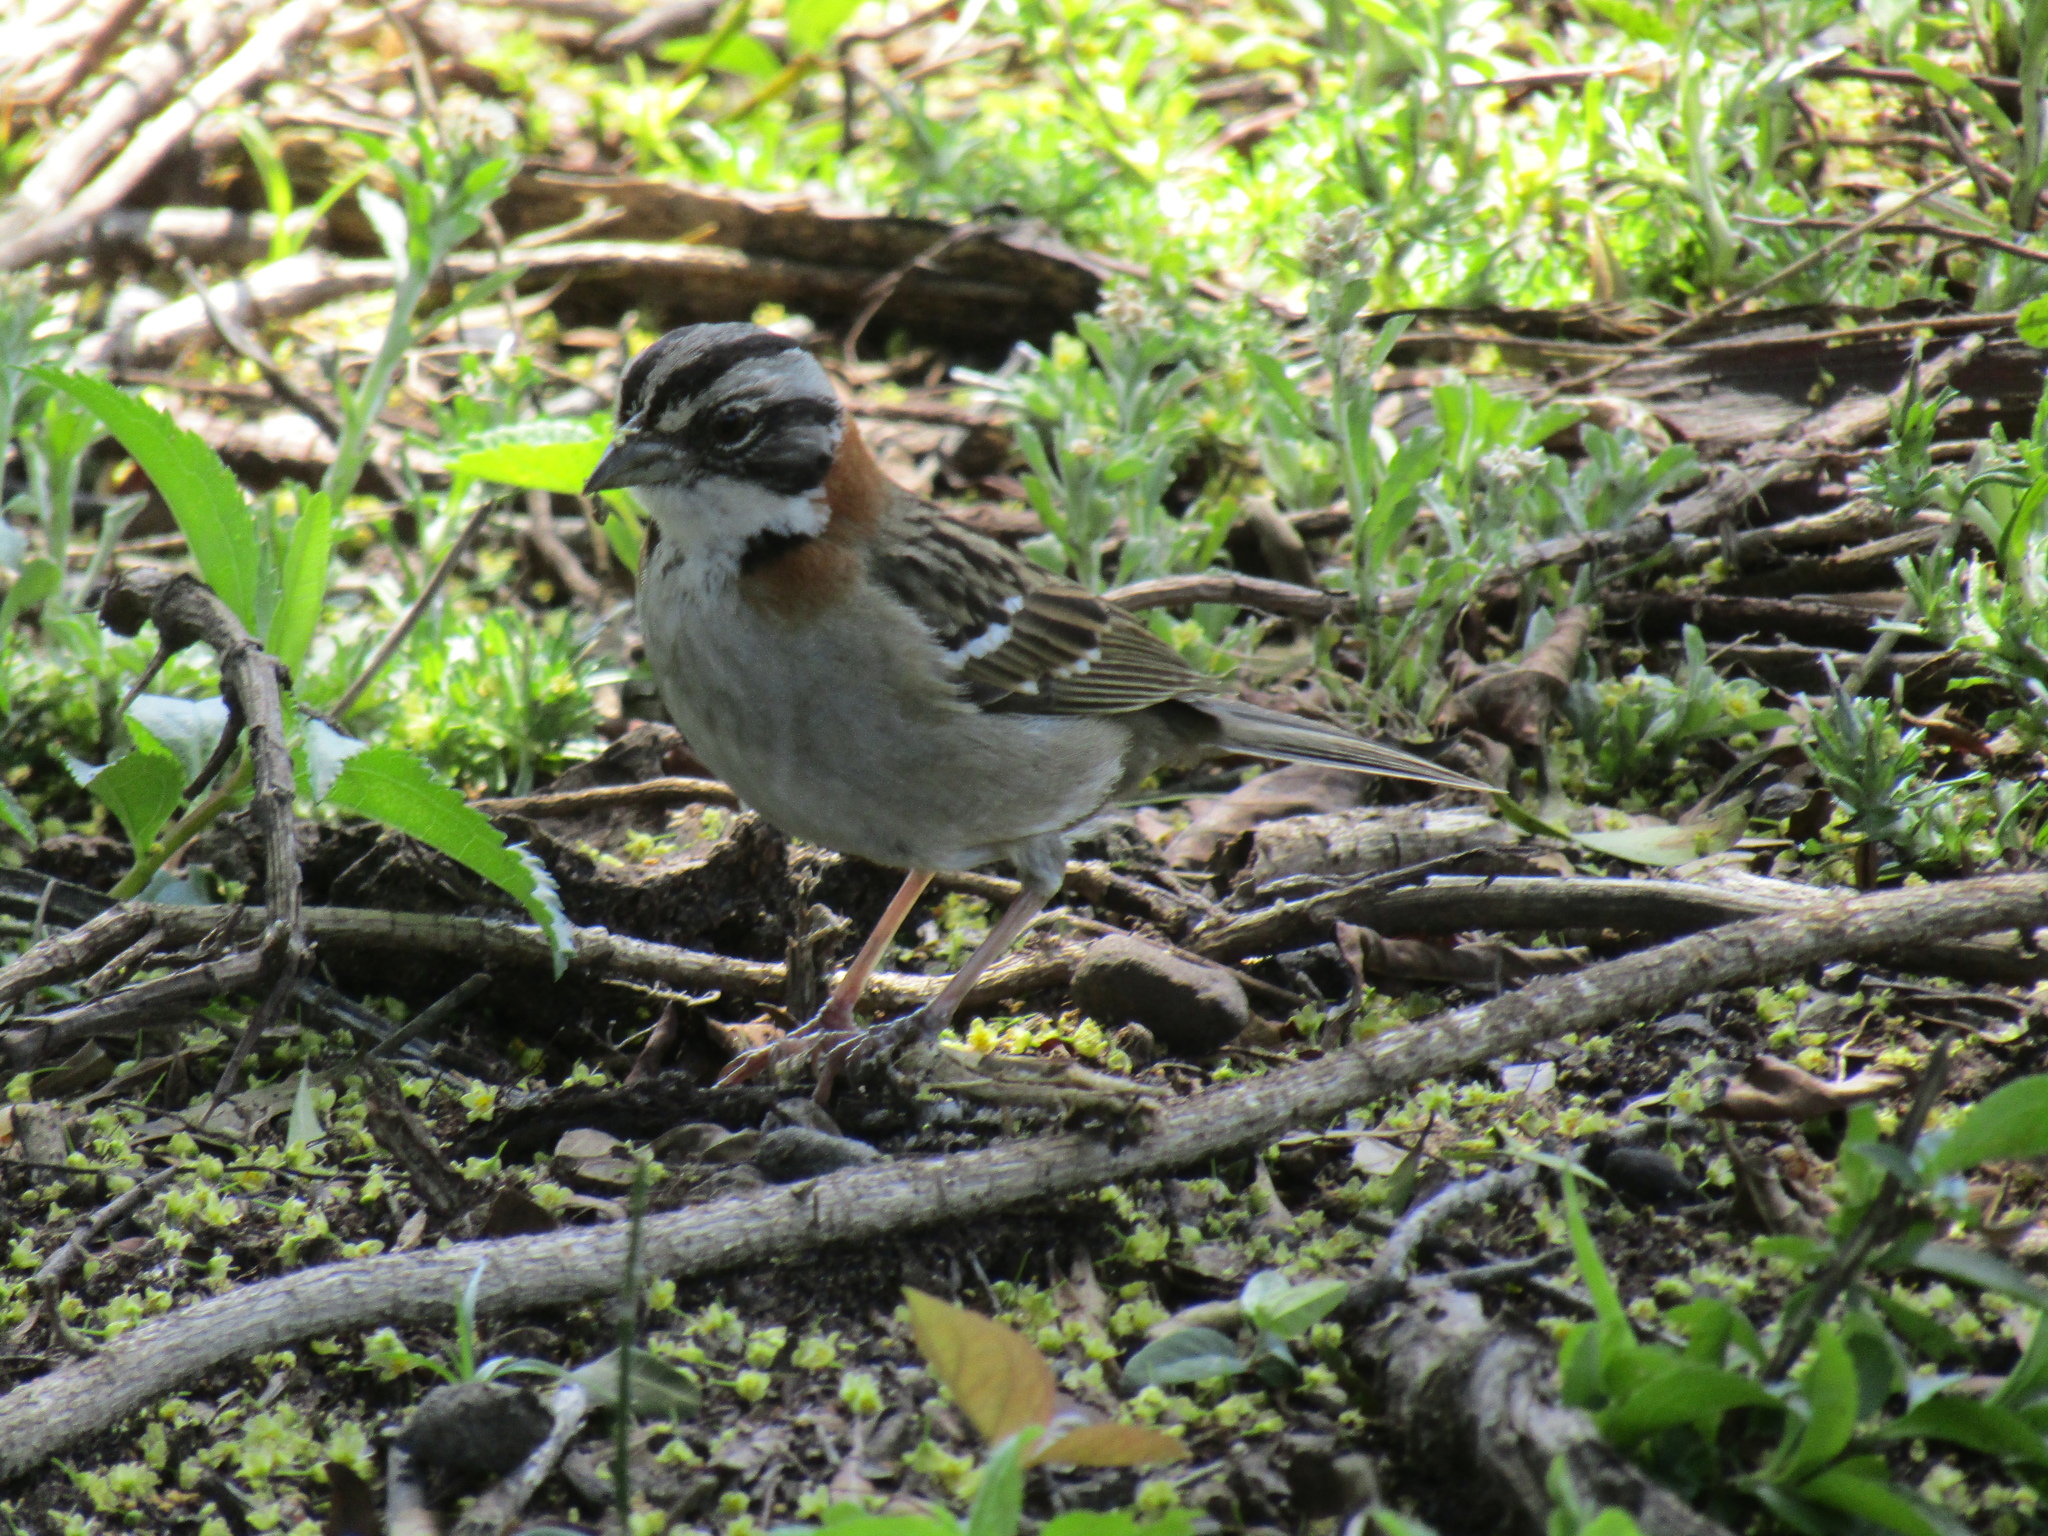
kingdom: Animalia
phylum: Chordata
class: Aves
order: Passeriformes
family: Passerellidae
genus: Zonotrichia
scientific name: Zonotrichia capensis
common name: Rufous-collared sparrow
